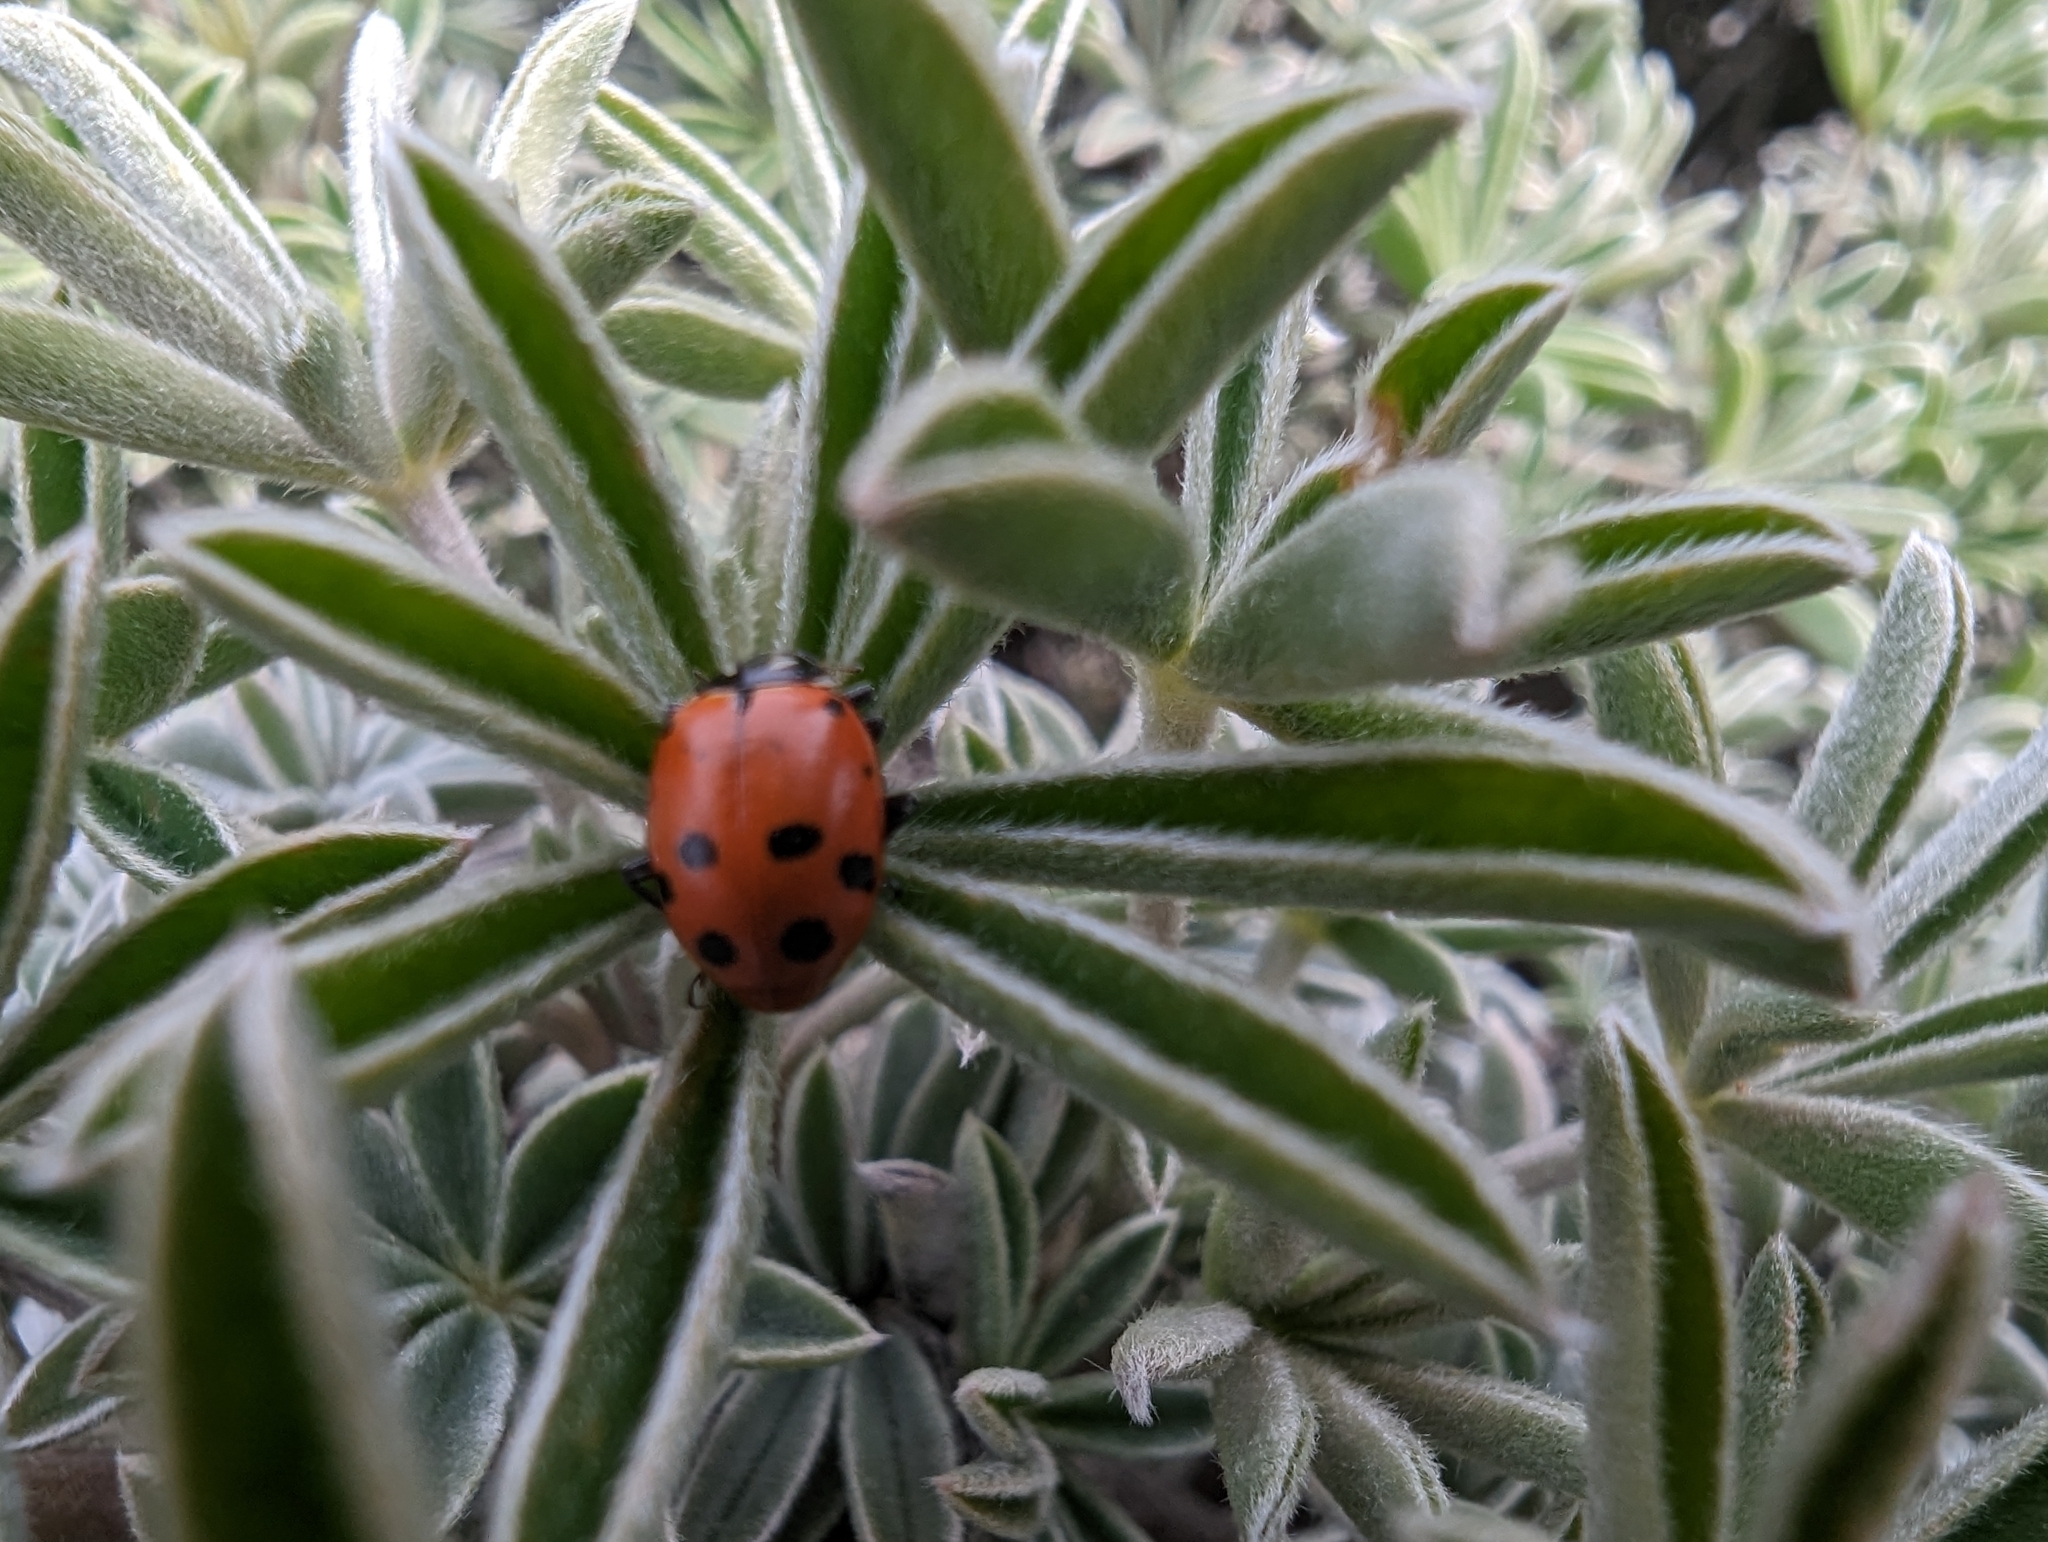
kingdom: Animalia
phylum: Arthropoda
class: Insecta
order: Coleoptera
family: Coccinellidae
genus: Hippodamia
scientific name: Hippodamia convergens
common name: Convergent lady beetle
